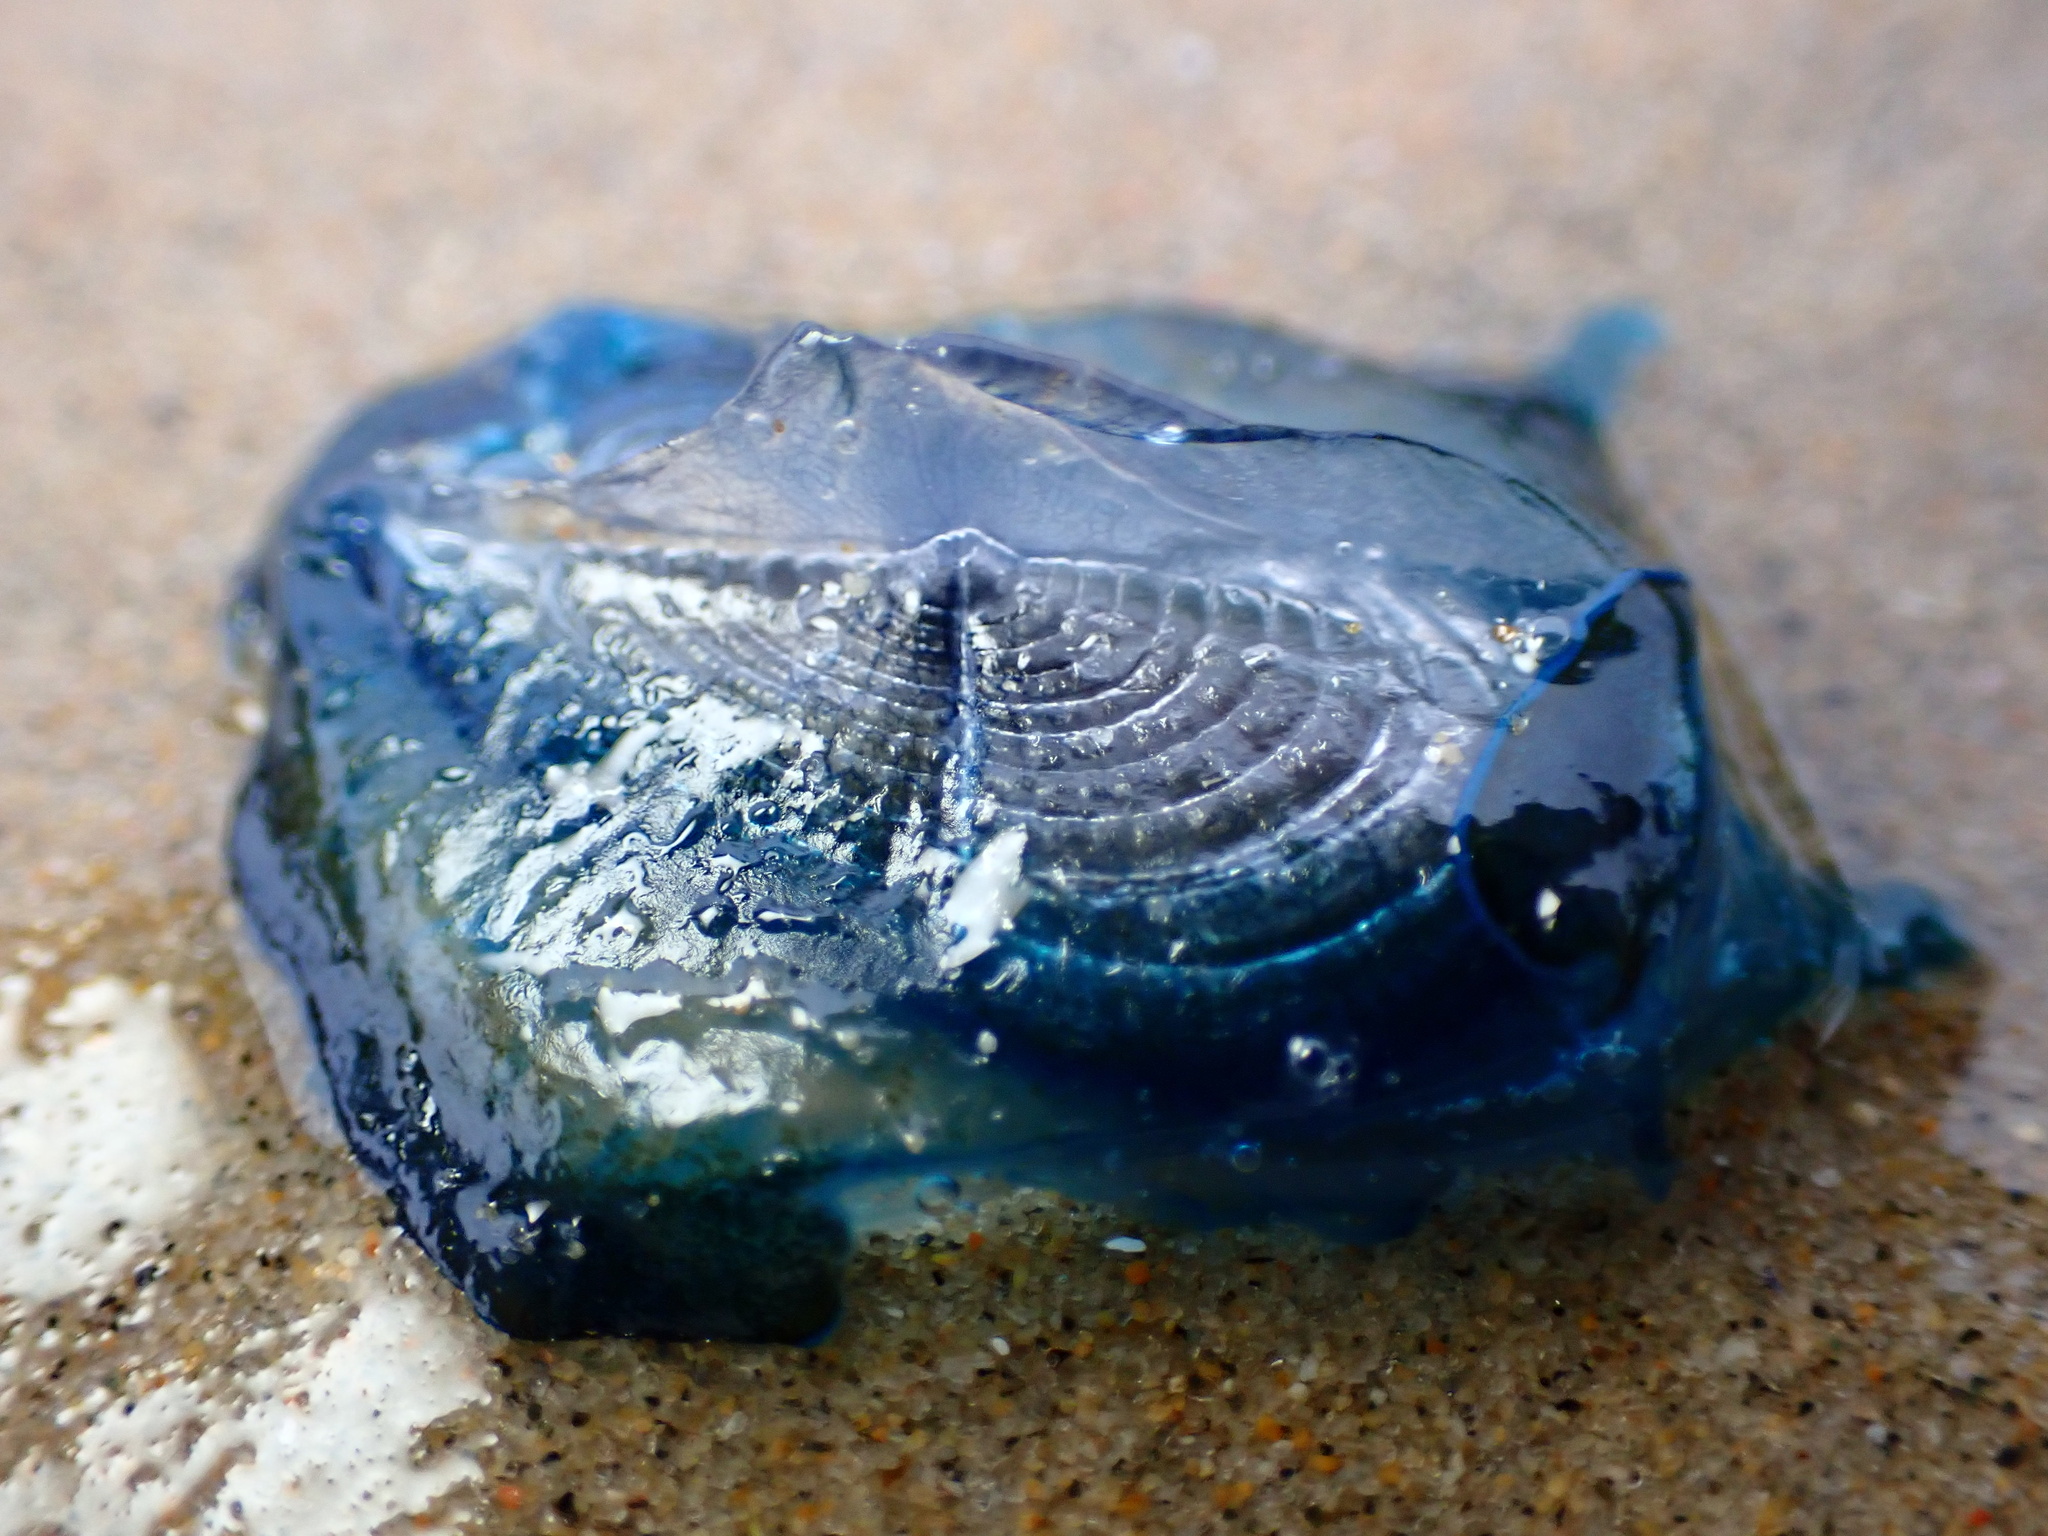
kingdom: Animalia
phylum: Cnidaria
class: Hydrozoa
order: Anthoathecata
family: Porpitidae
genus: Velella
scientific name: Velella velella
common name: By-the-wind-sailor
